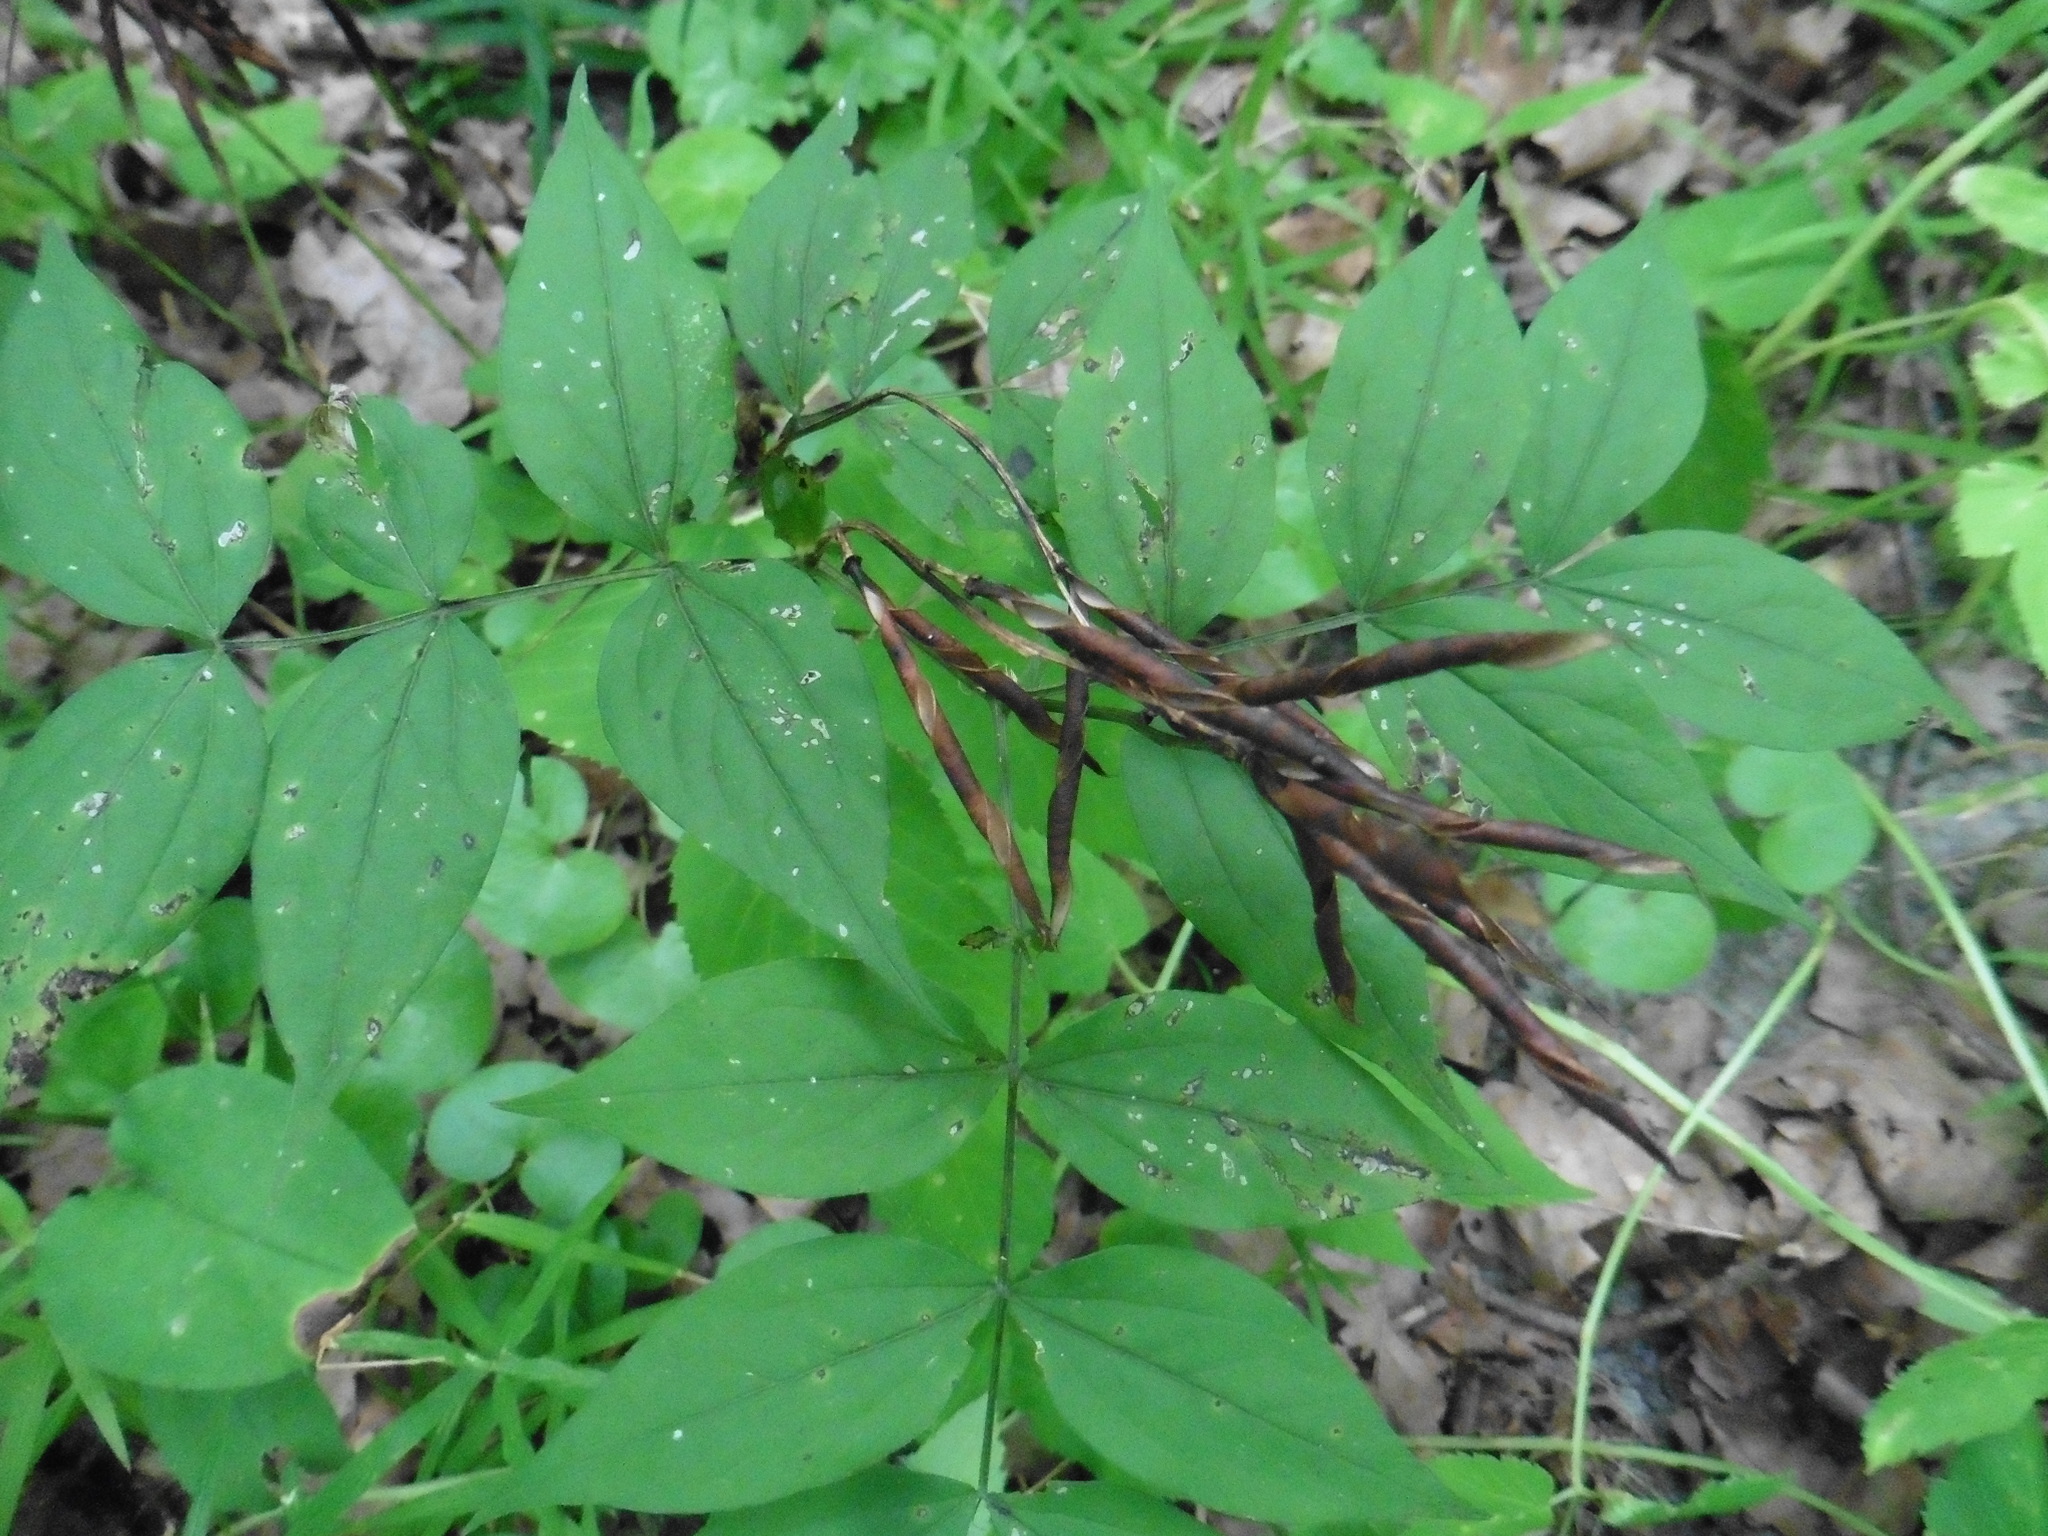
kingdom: Plantae
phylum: Tracheophyta
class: Magnoliopsida
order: Fabales
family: Fabaceae
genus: Lathyrus
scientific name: Lathyrus vernus
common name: Spring pea
